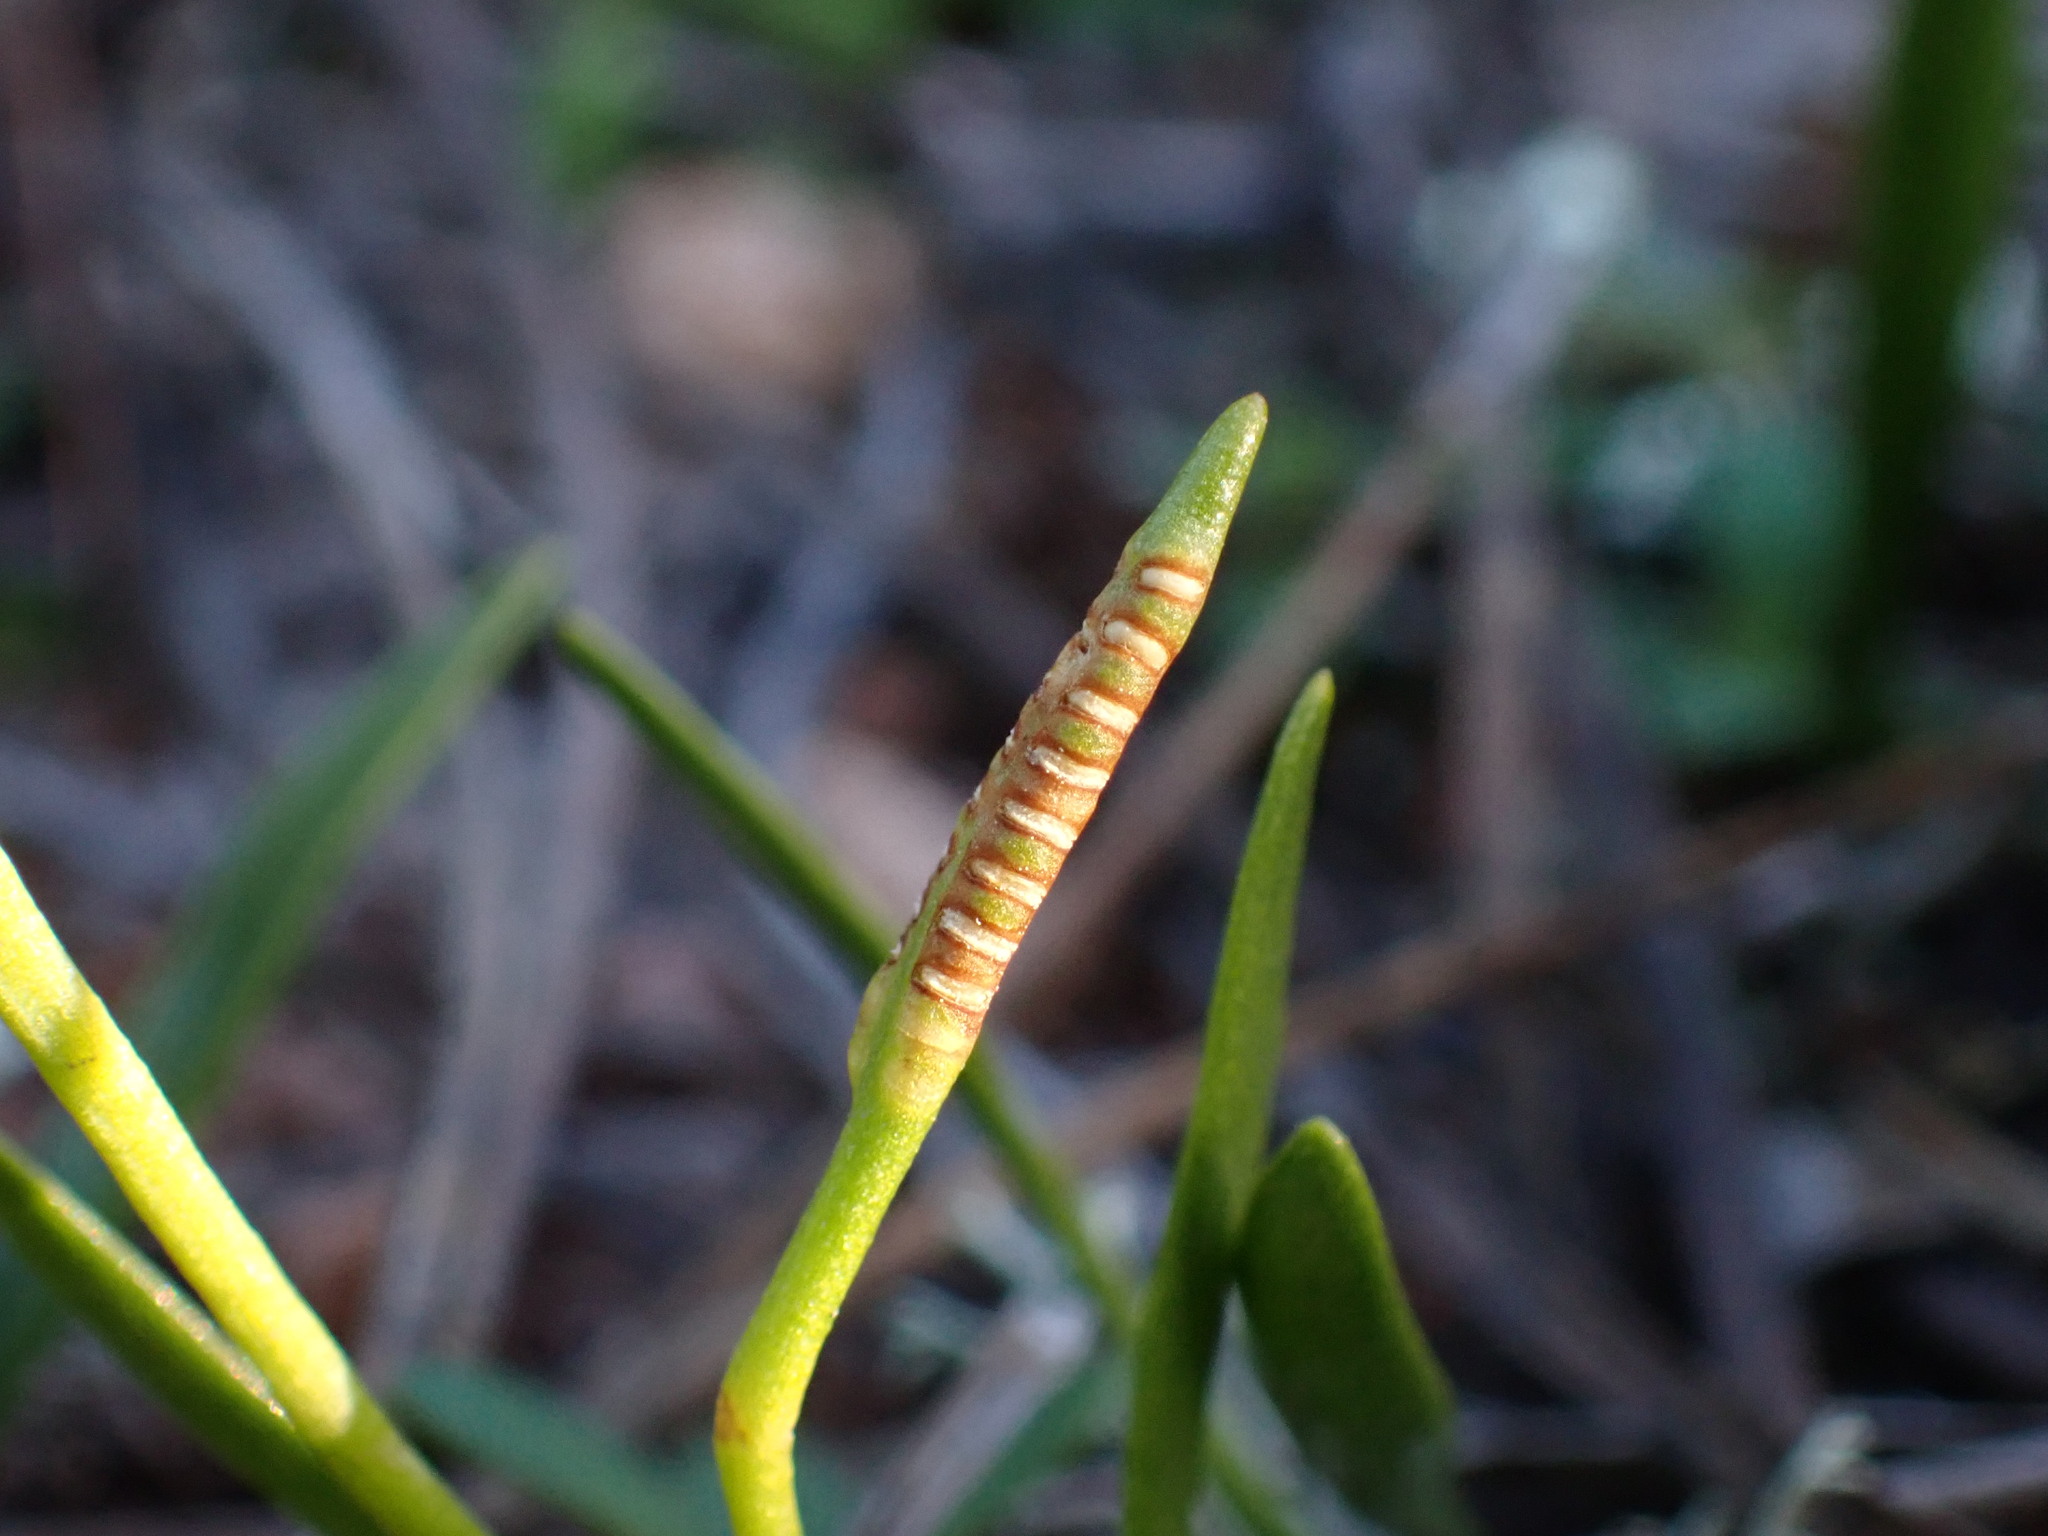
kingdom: Plantae
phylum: Tracheophyta
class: Polypodiopsida
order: Ophioglossales
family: Ophioglossaceae
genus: Ophioglossum
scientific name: Ophioglossum lusitanicum
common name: Least adder's-tongue
